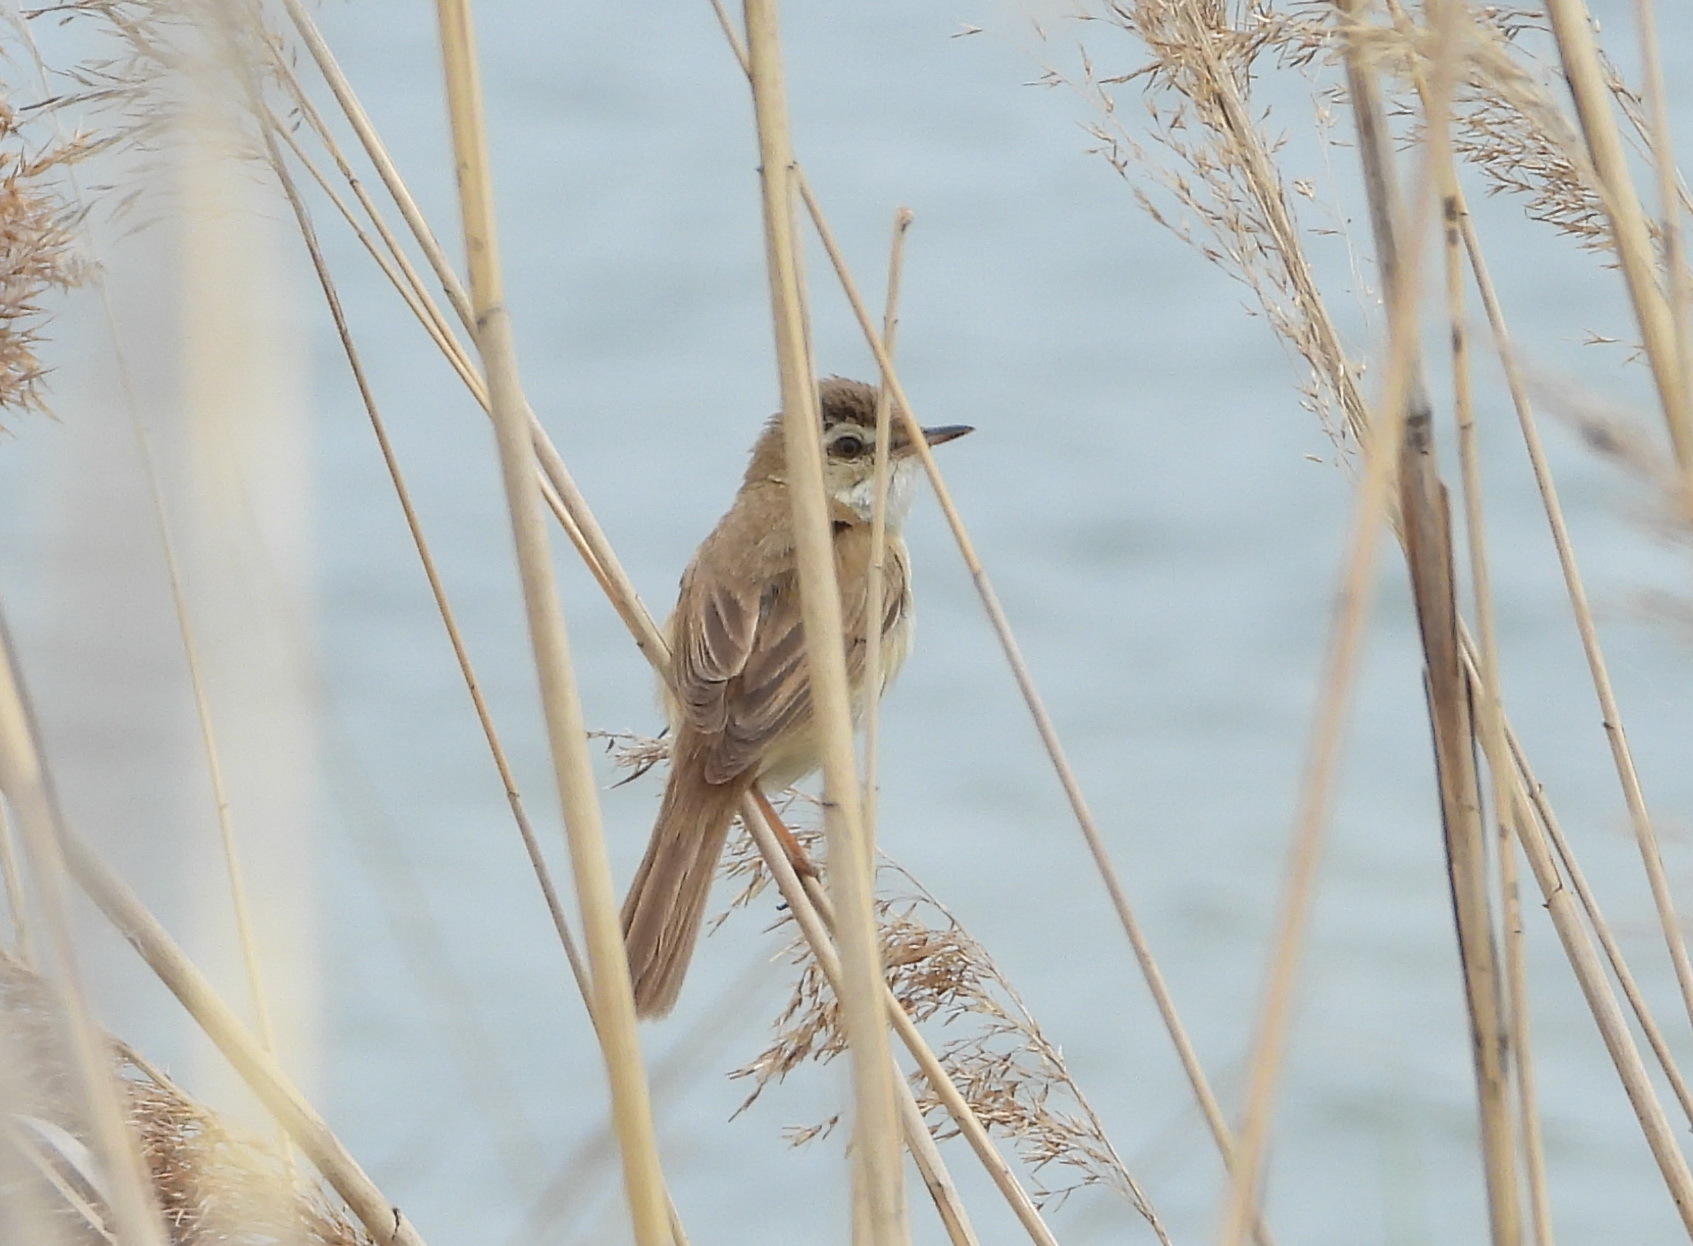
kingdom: Animalia
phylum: Chordata
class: Aves
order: Passeriformes
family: Acrocephalidae
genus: Acrocephalus
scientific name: Acrocephalus agricola
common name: Paddyfield warbler
